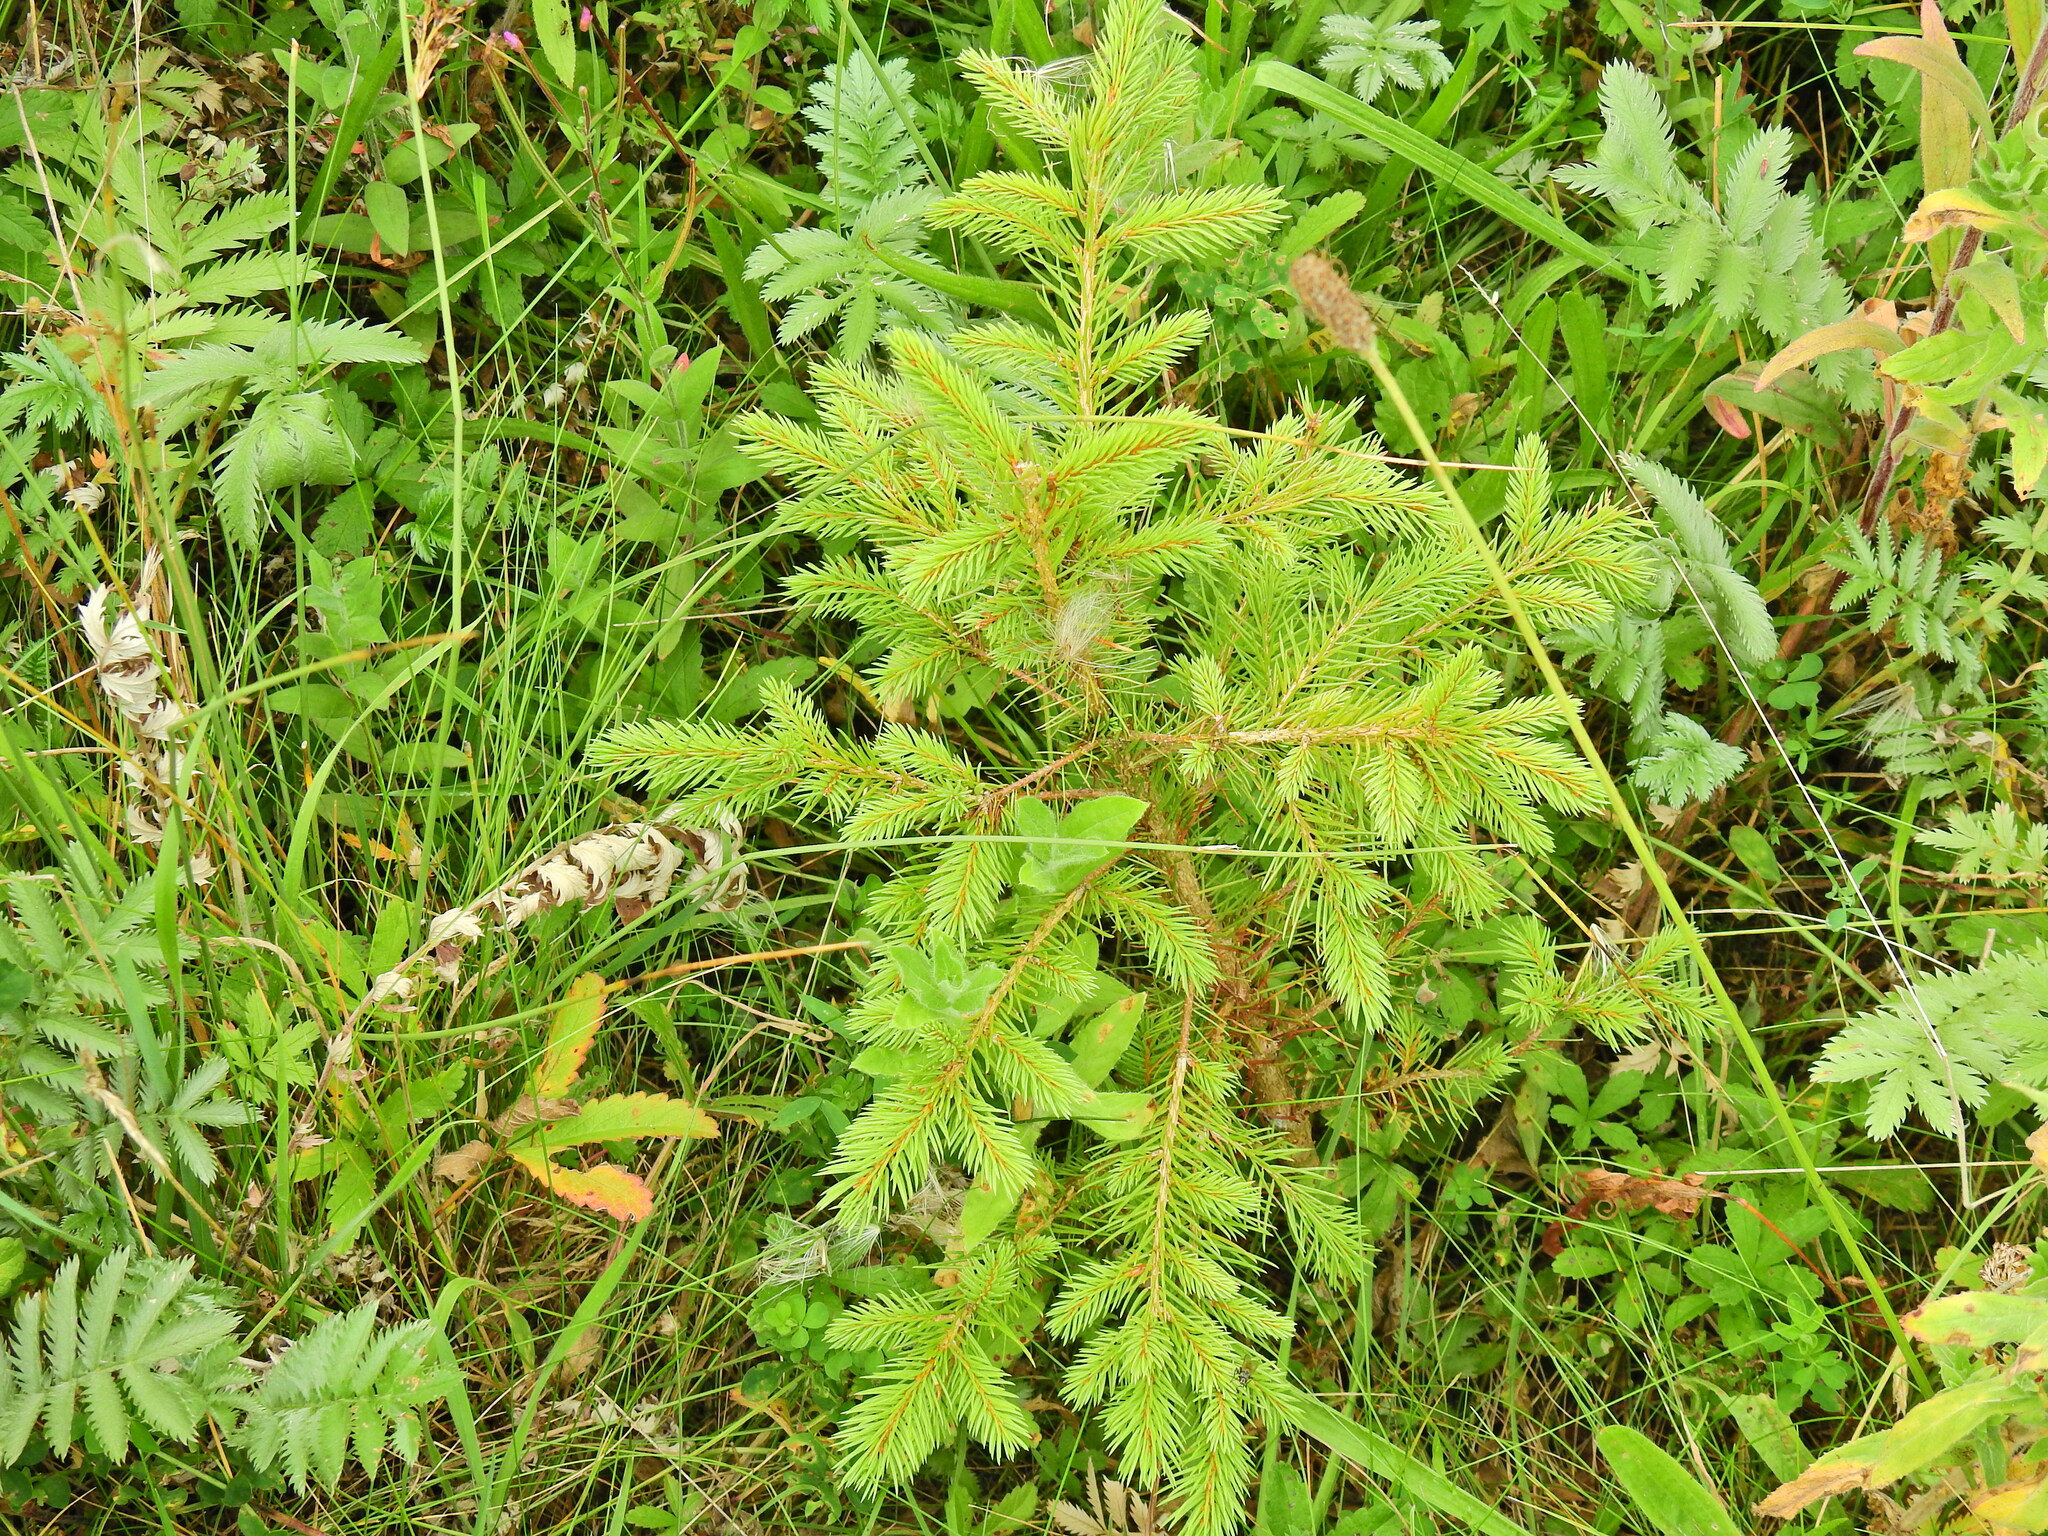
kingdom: Plantae
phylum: Tracheophyta
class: Pinopsida
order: Pinales
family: Pinaceae
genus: Picea
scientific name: Picea abies
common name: Norway spruce
